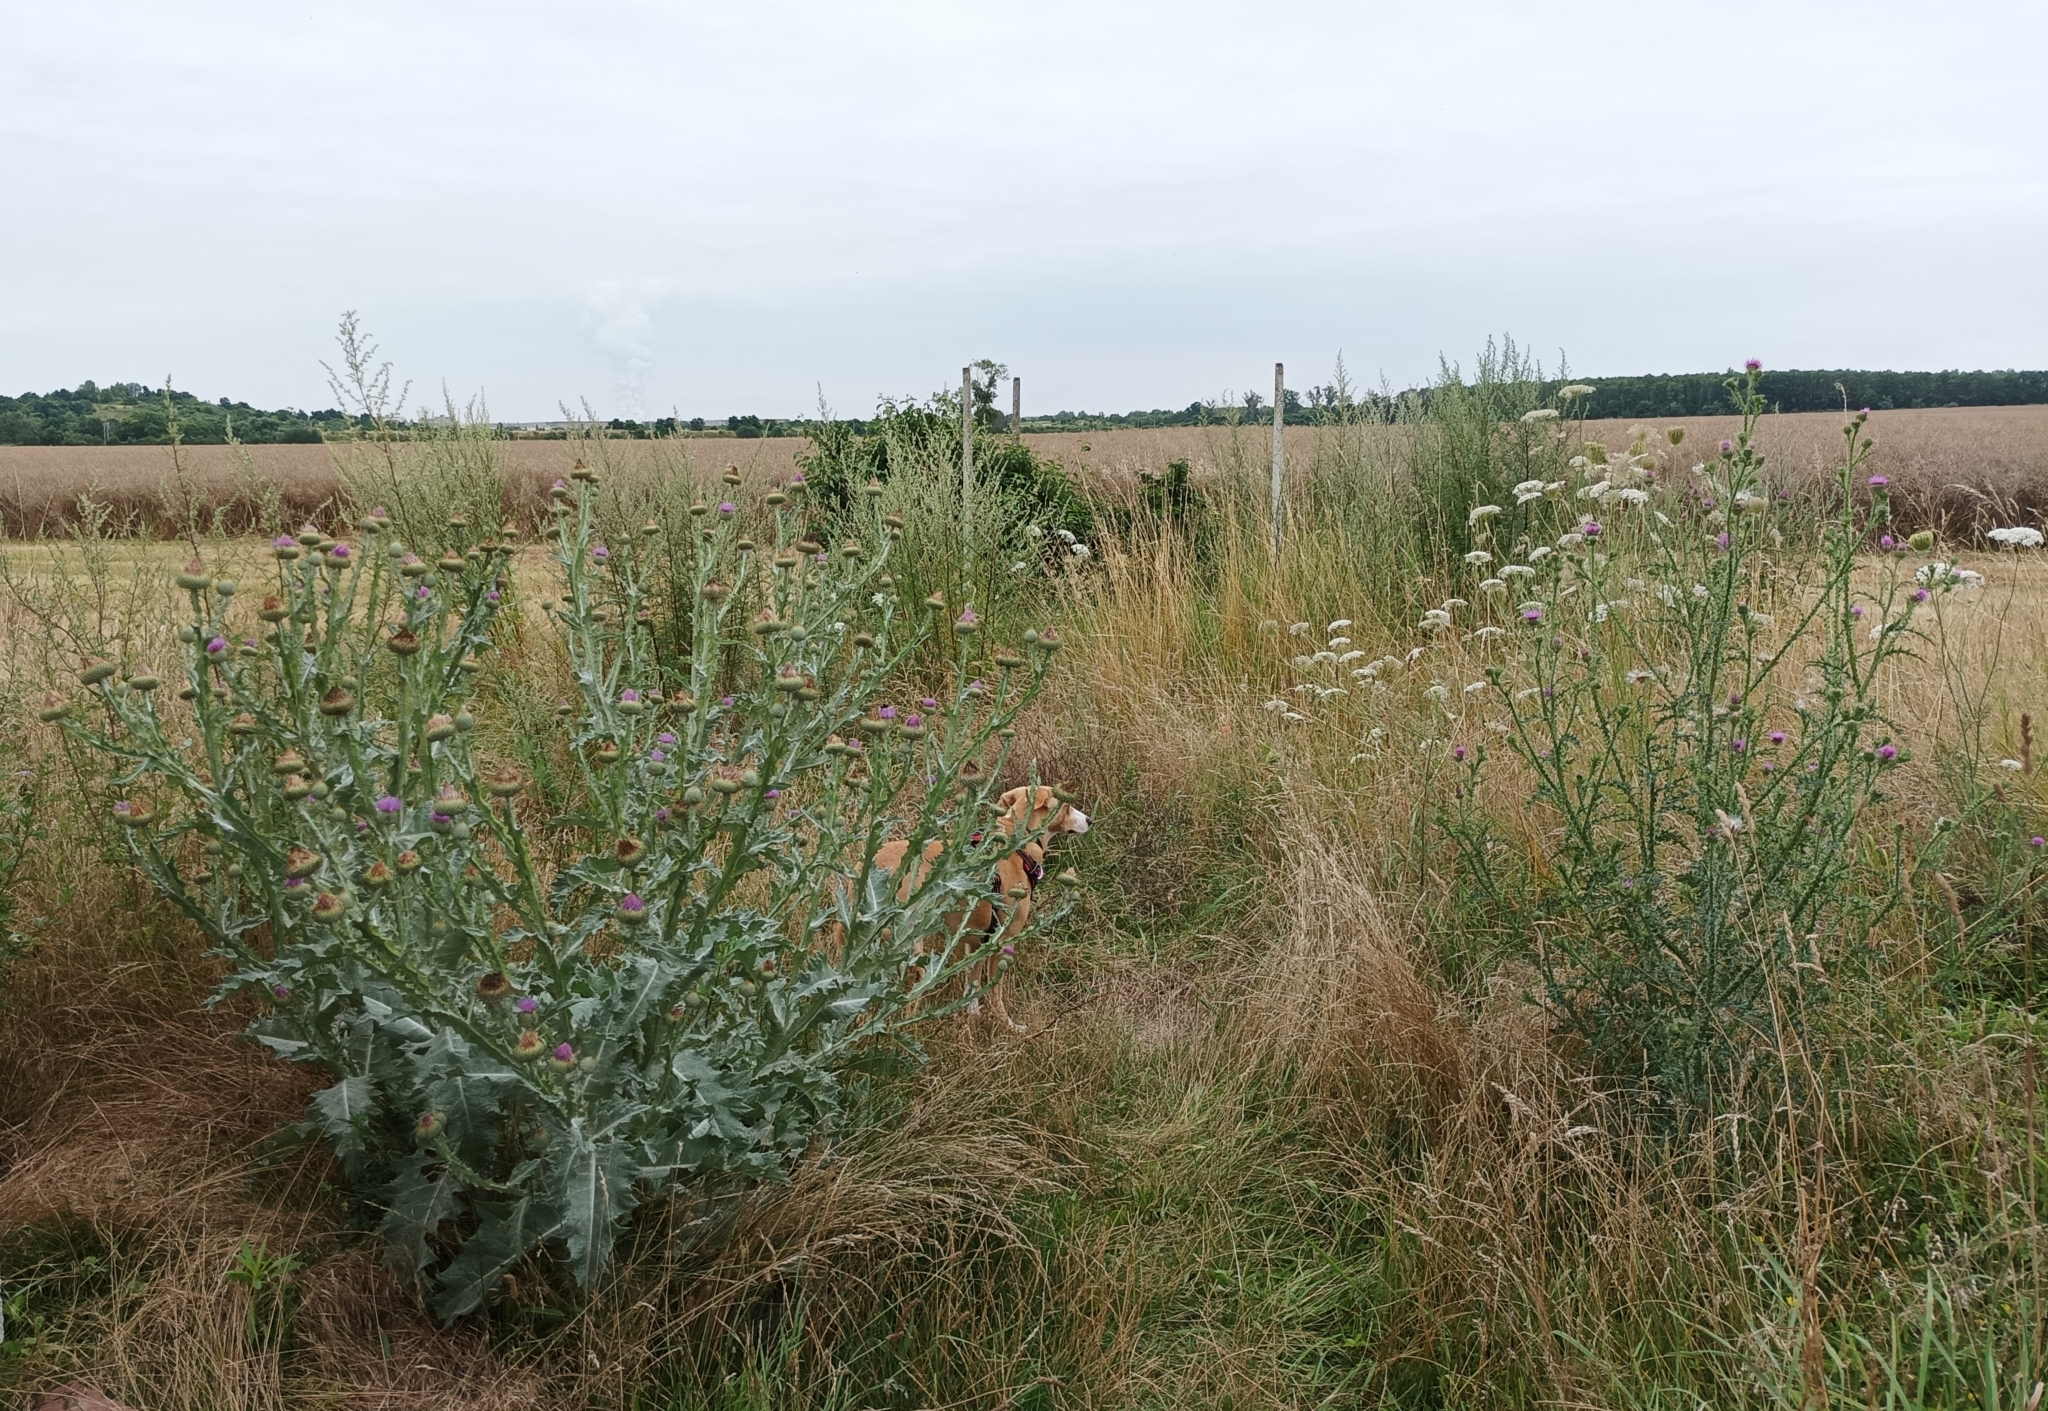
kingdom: Plantae
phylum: Tracheophyta
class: Magnoliopsida
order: Asterales
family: Asteraceae
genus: Onopordum
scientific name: Onopordum acanthium
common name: Scotch thistle
